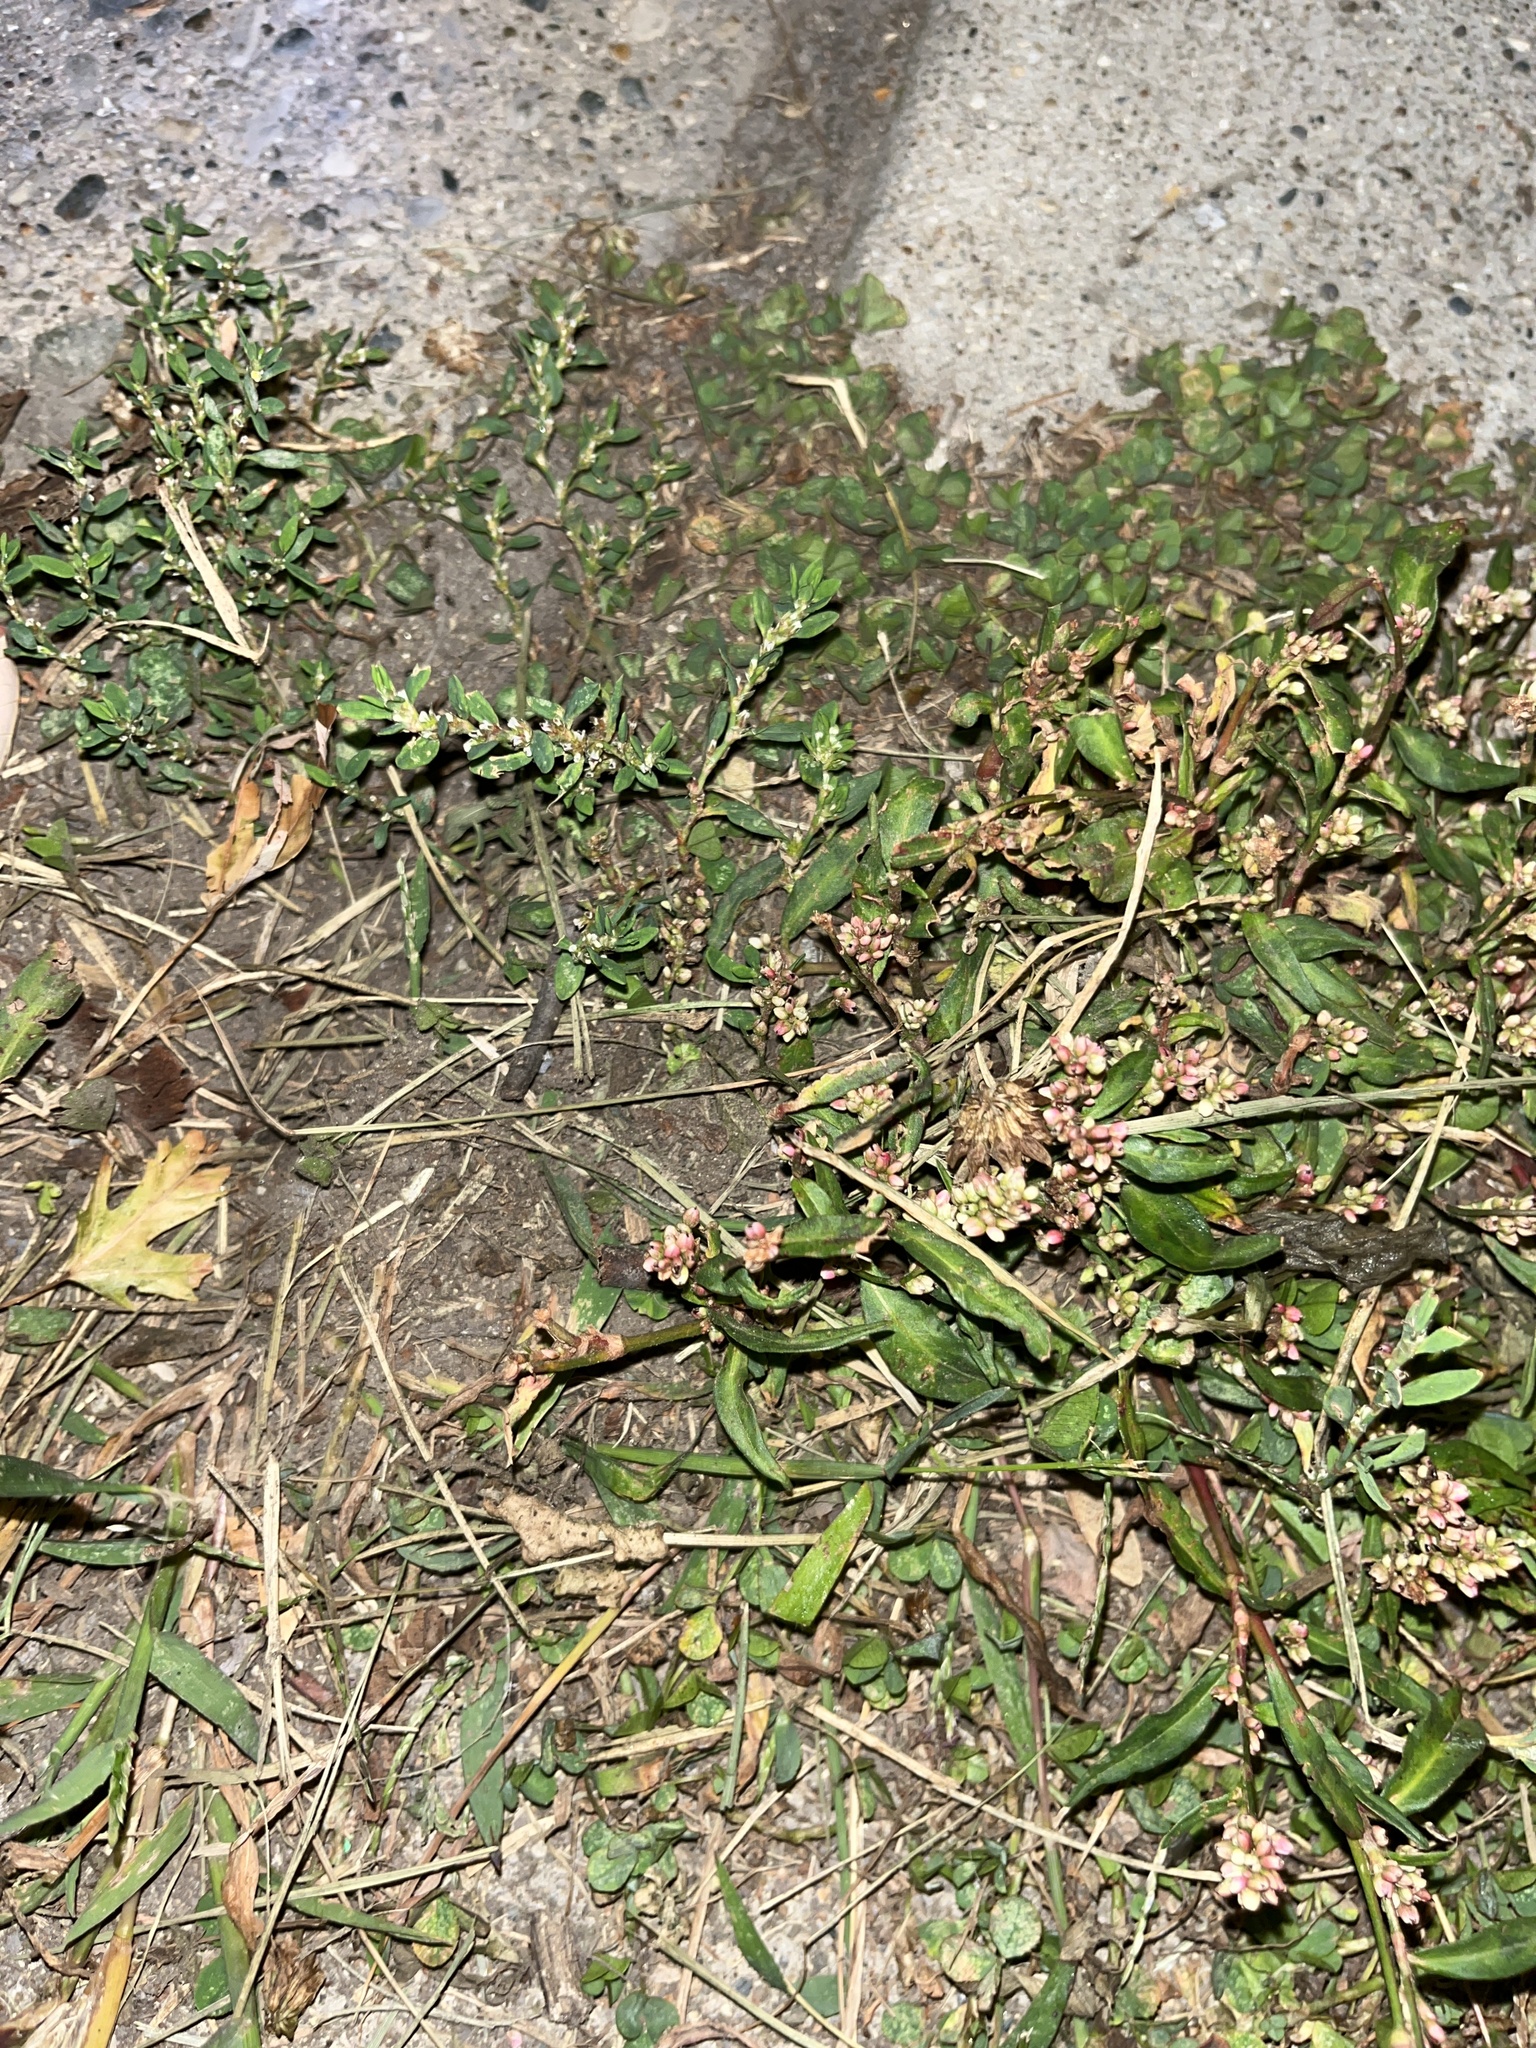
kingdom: Plantae
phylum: Tracheophyta
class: Magnoliopsida
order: Caryophyllales
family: Polygonaceae
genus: Polygonum
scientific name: Polygonum aviculare
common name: Prostrate knotweed
